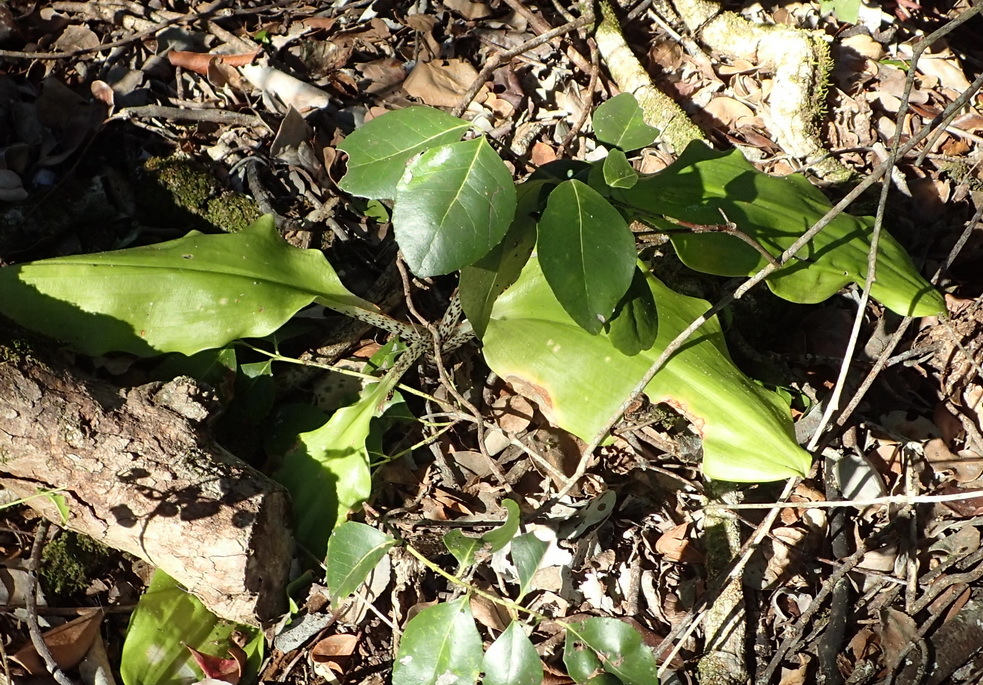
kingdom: Plantae
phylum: Tracheophyta
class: Liliopsida
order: Asparagales
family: Amaryllidaceae
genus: Scadoxus
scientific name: Scadoxus puniceus
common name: Royal-paintbrush
